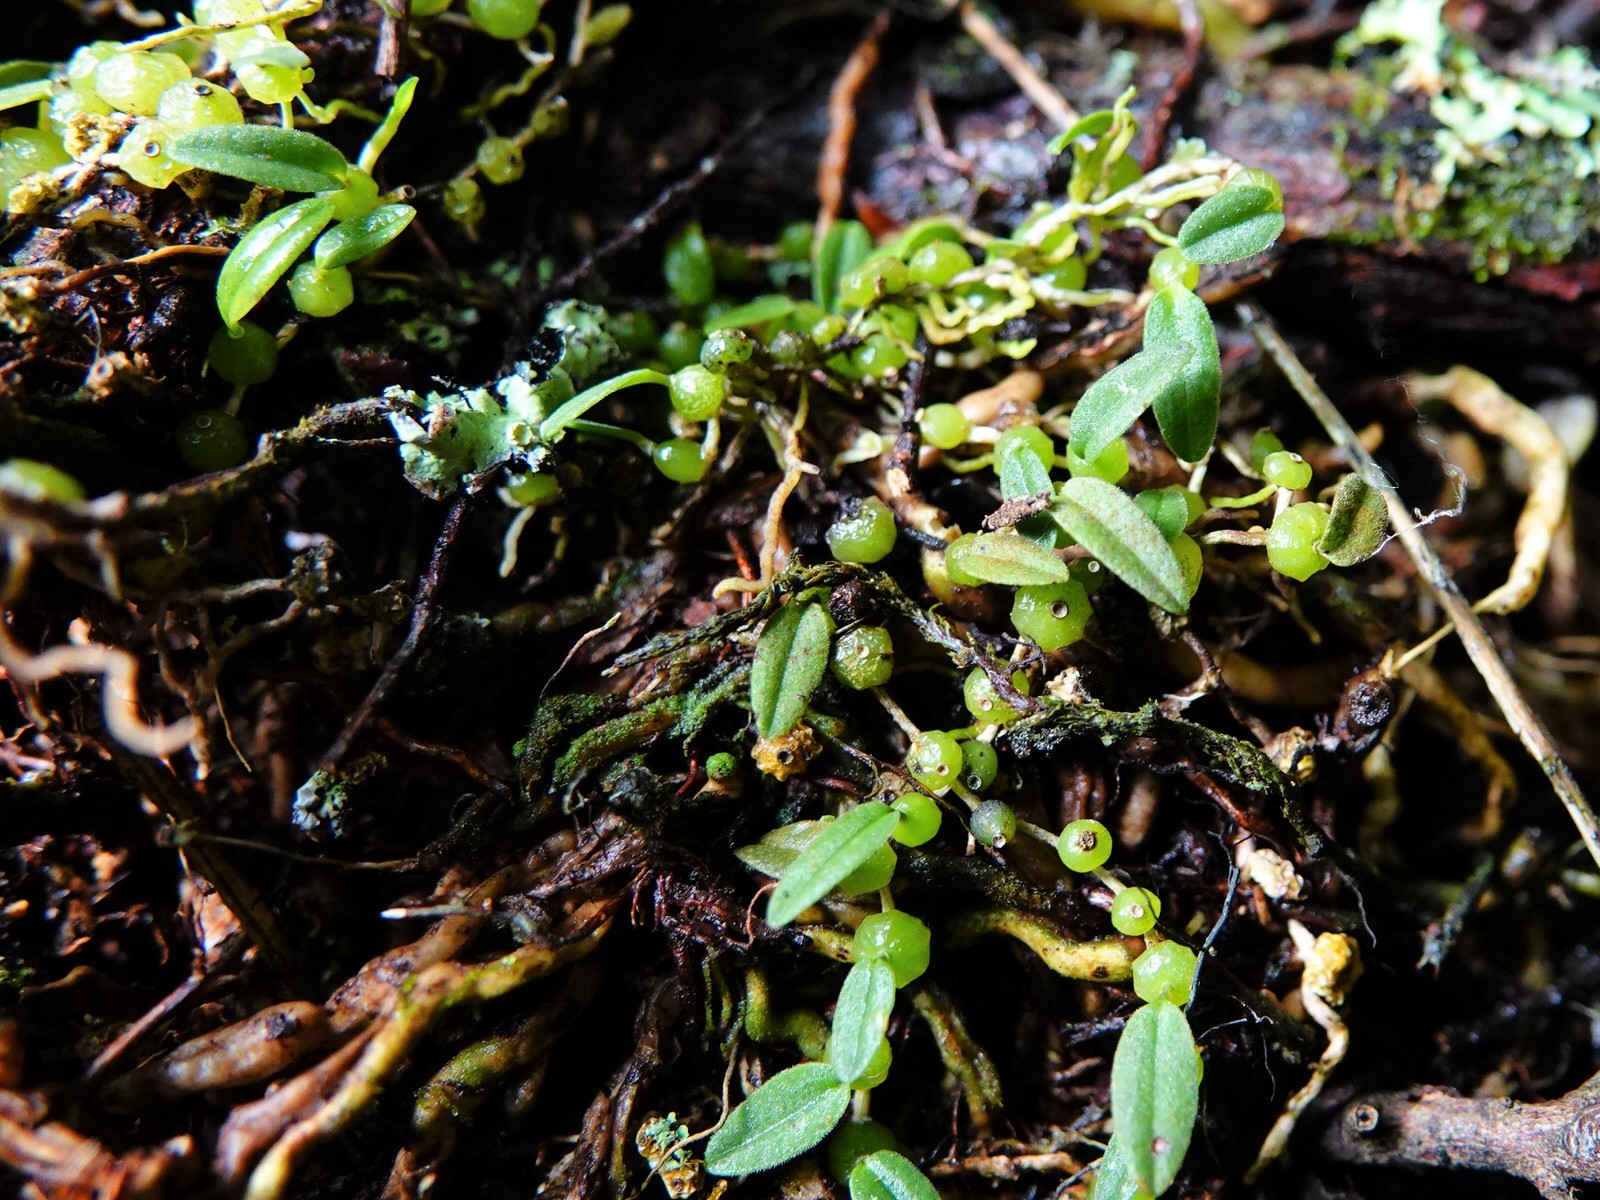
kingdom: Plantae
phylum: Tracheophyta
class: Liliopsida
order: Asparagales
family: Orchidaceae
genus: Bulbophyllum
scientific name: Bulbophyllum pygmaeum
